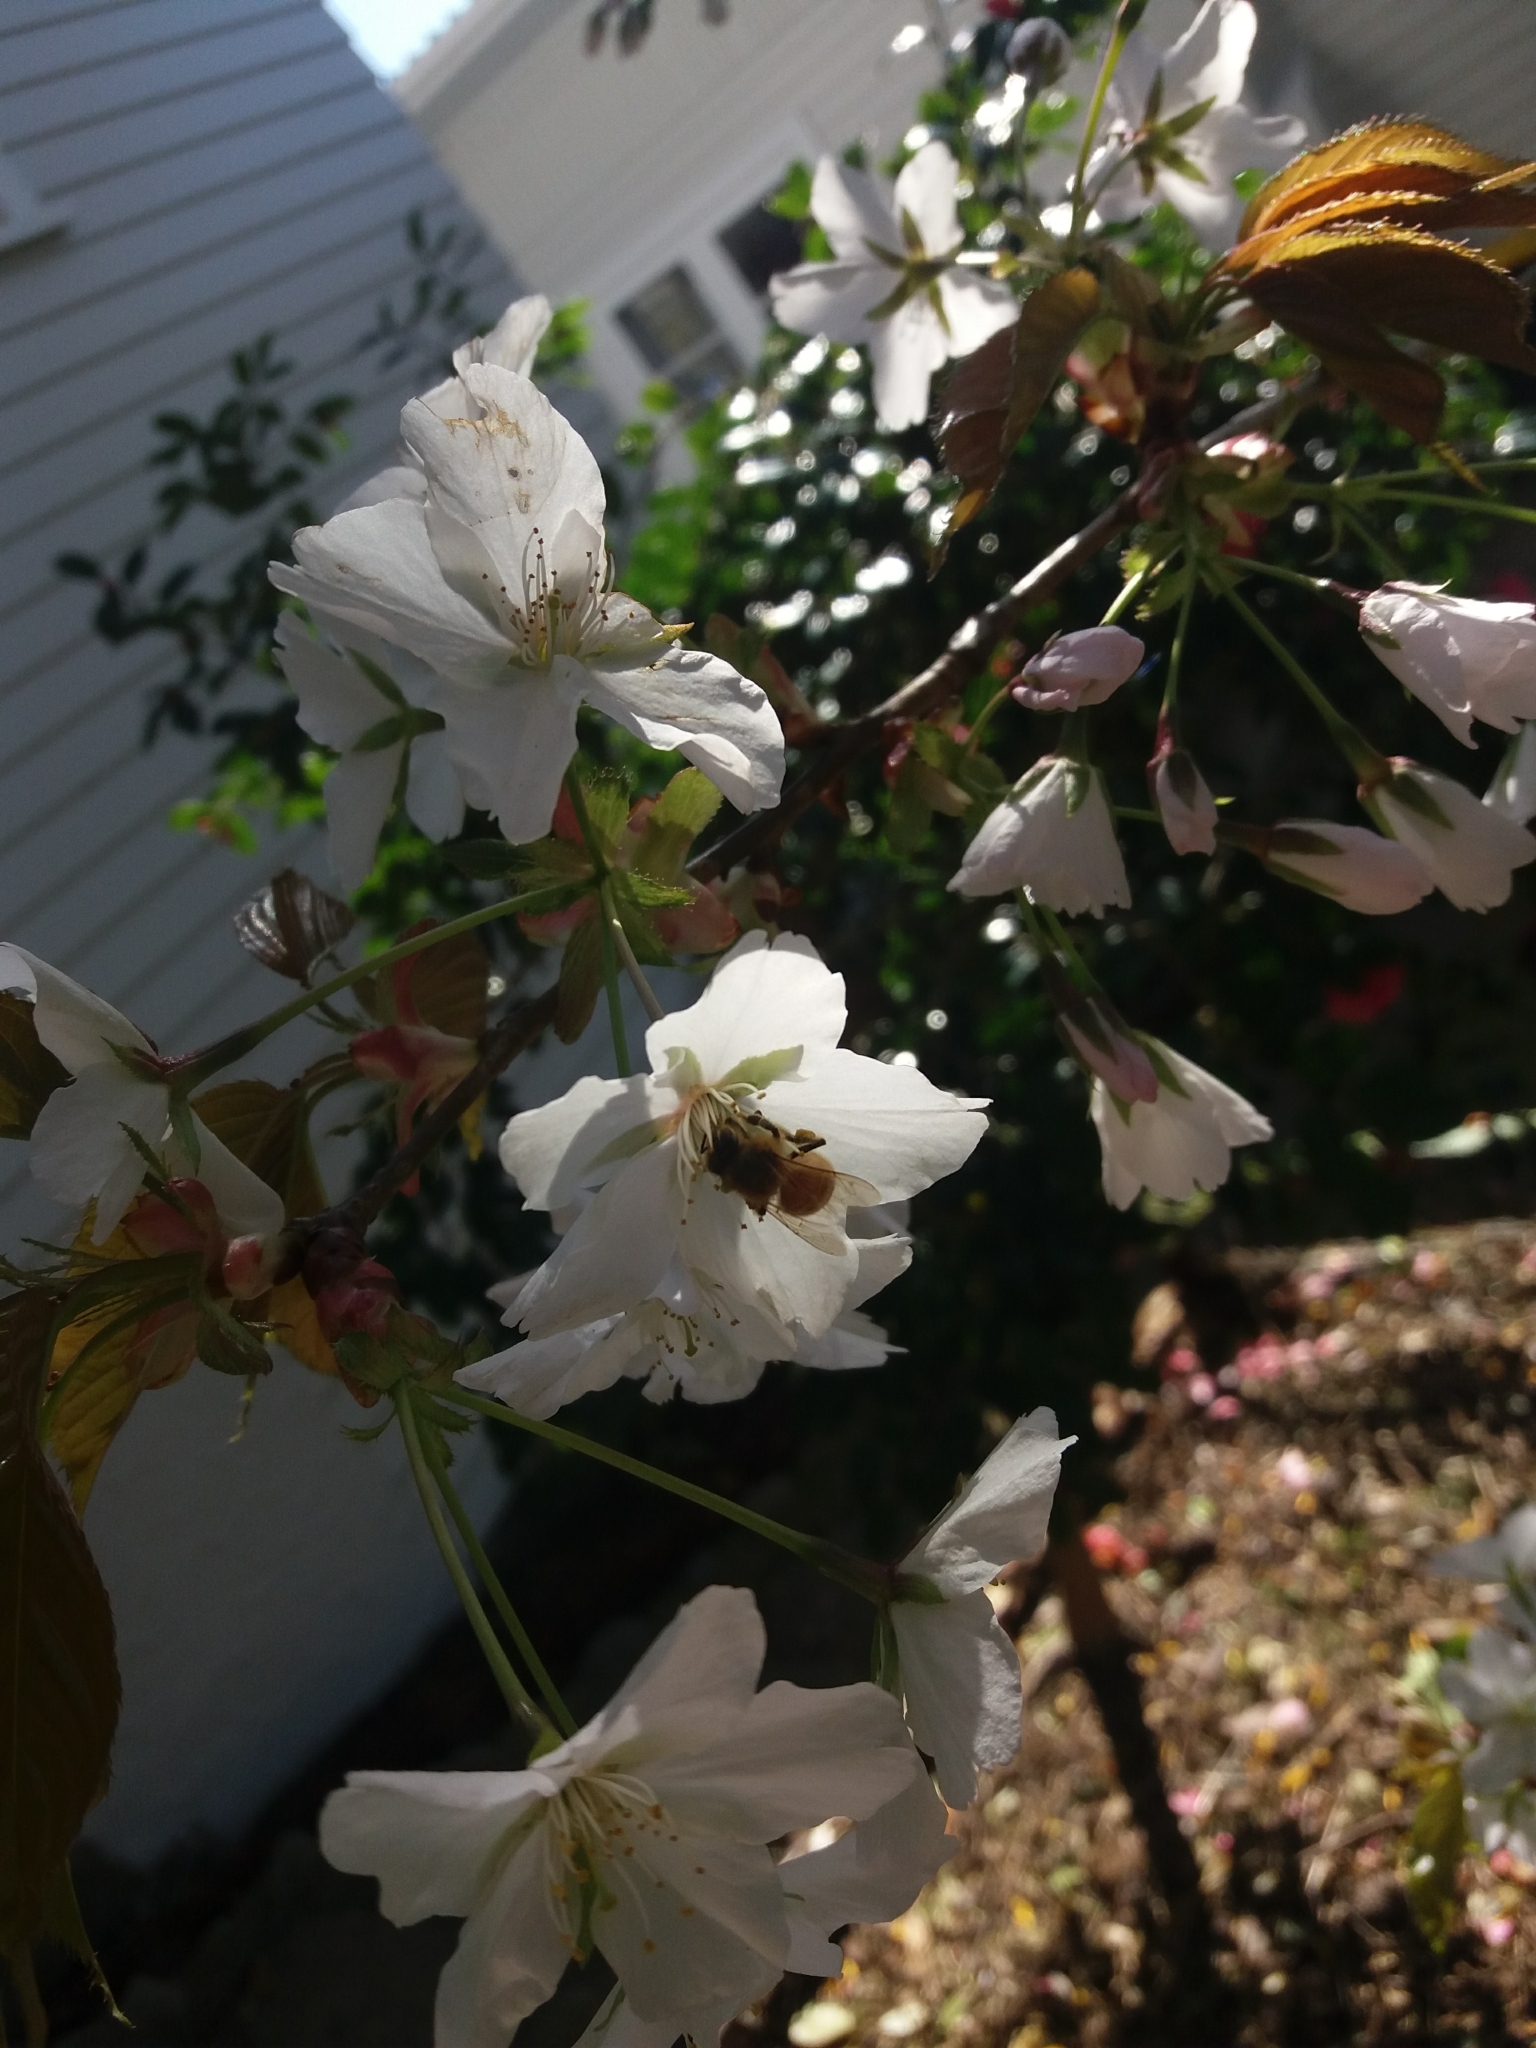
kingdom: Animalia
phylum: Arthropoda
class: Insecta
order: Hymenoptera
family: Apidae
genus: Apis
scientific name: Apis mellifera
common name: Honey bee
